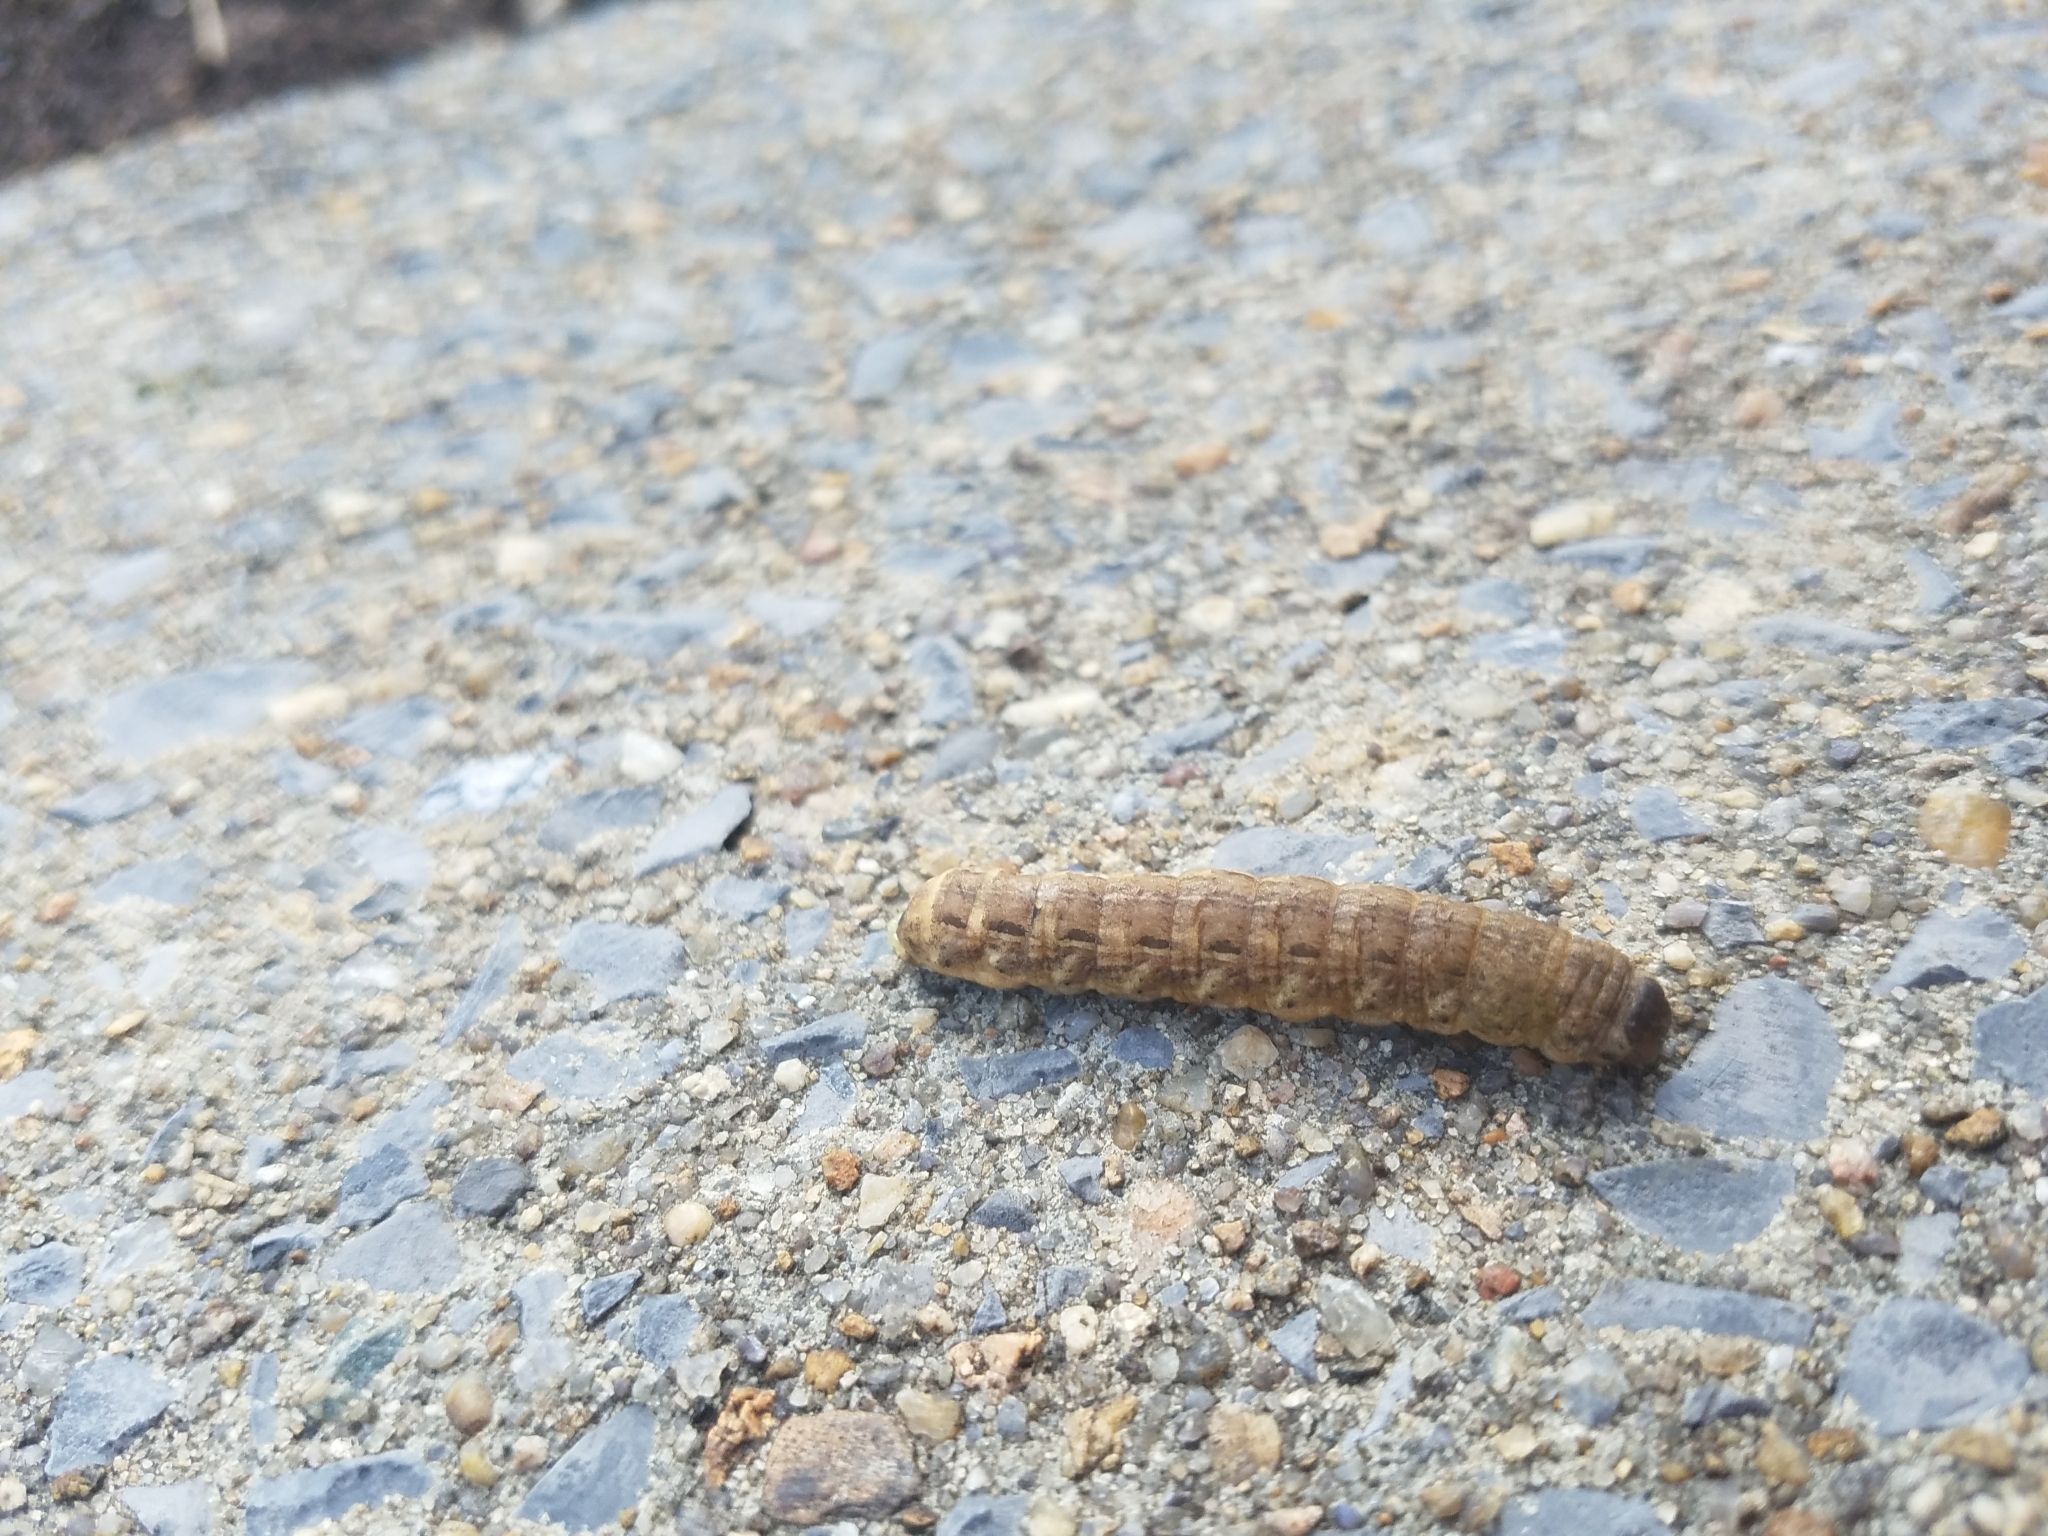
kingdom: Animalia
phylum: Arthropoda
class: Insecta
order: Lepidoptera
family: Noctuidae
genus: Noctua
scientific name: Noctua pronuba
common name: Large yellow underwing
